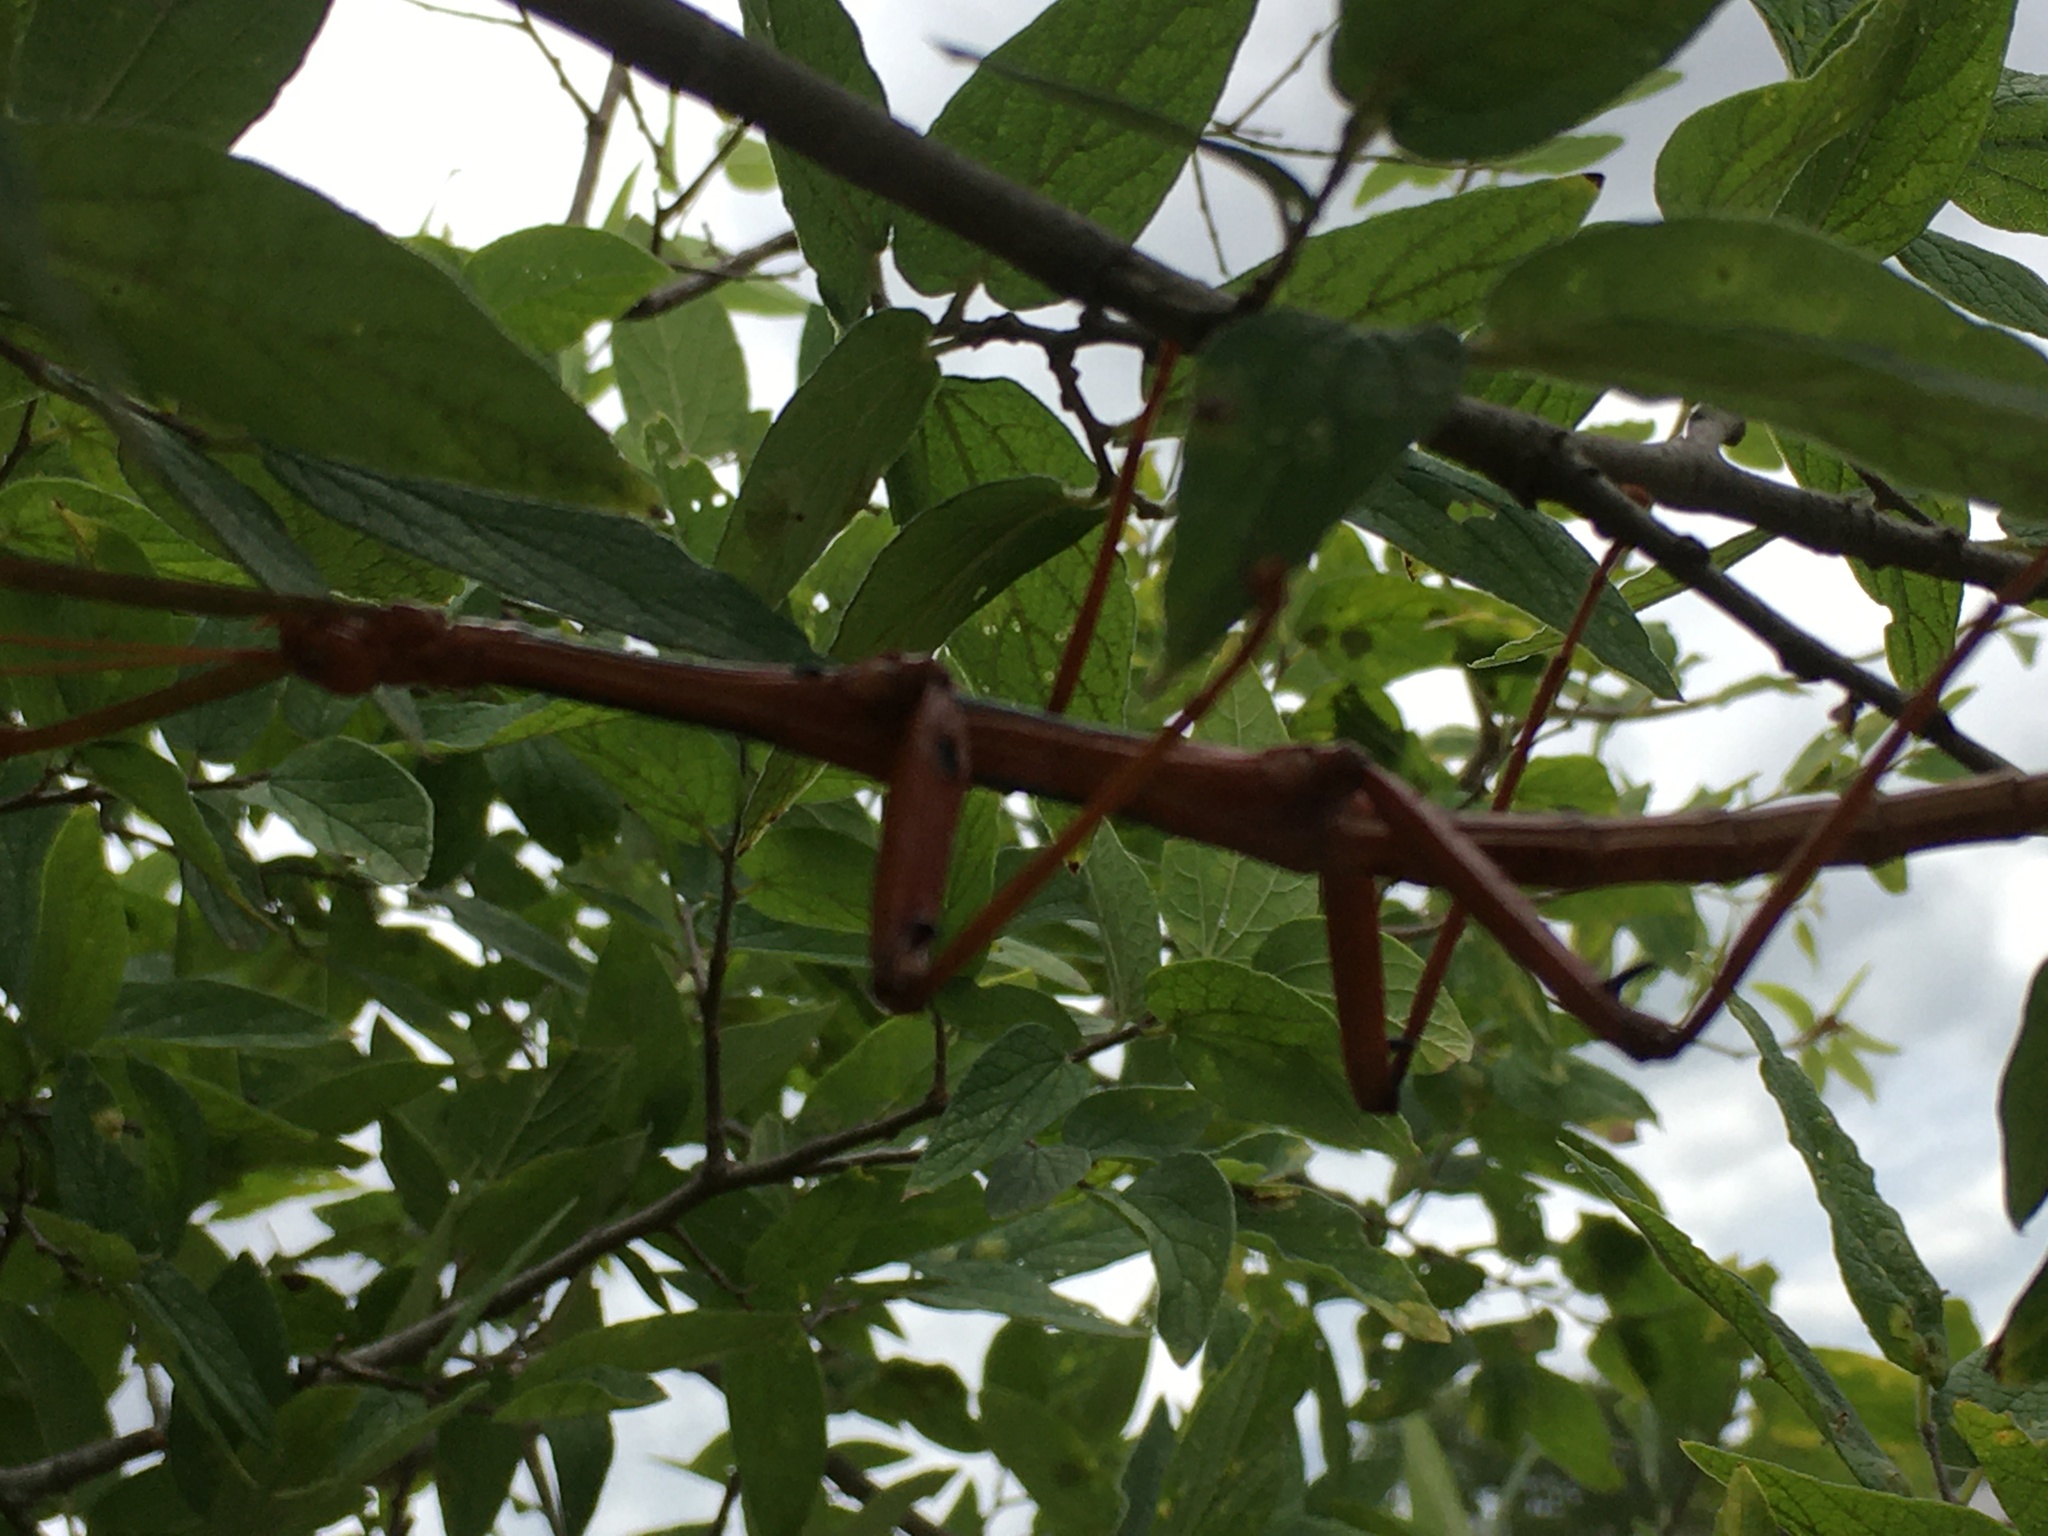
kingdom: Animalia
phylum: Arthropoda
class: Insecta
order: Phasmida
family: Diapheromeridae
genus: Megaphasma
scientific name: Megaphasma denticrus
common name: Giant walkingstick
